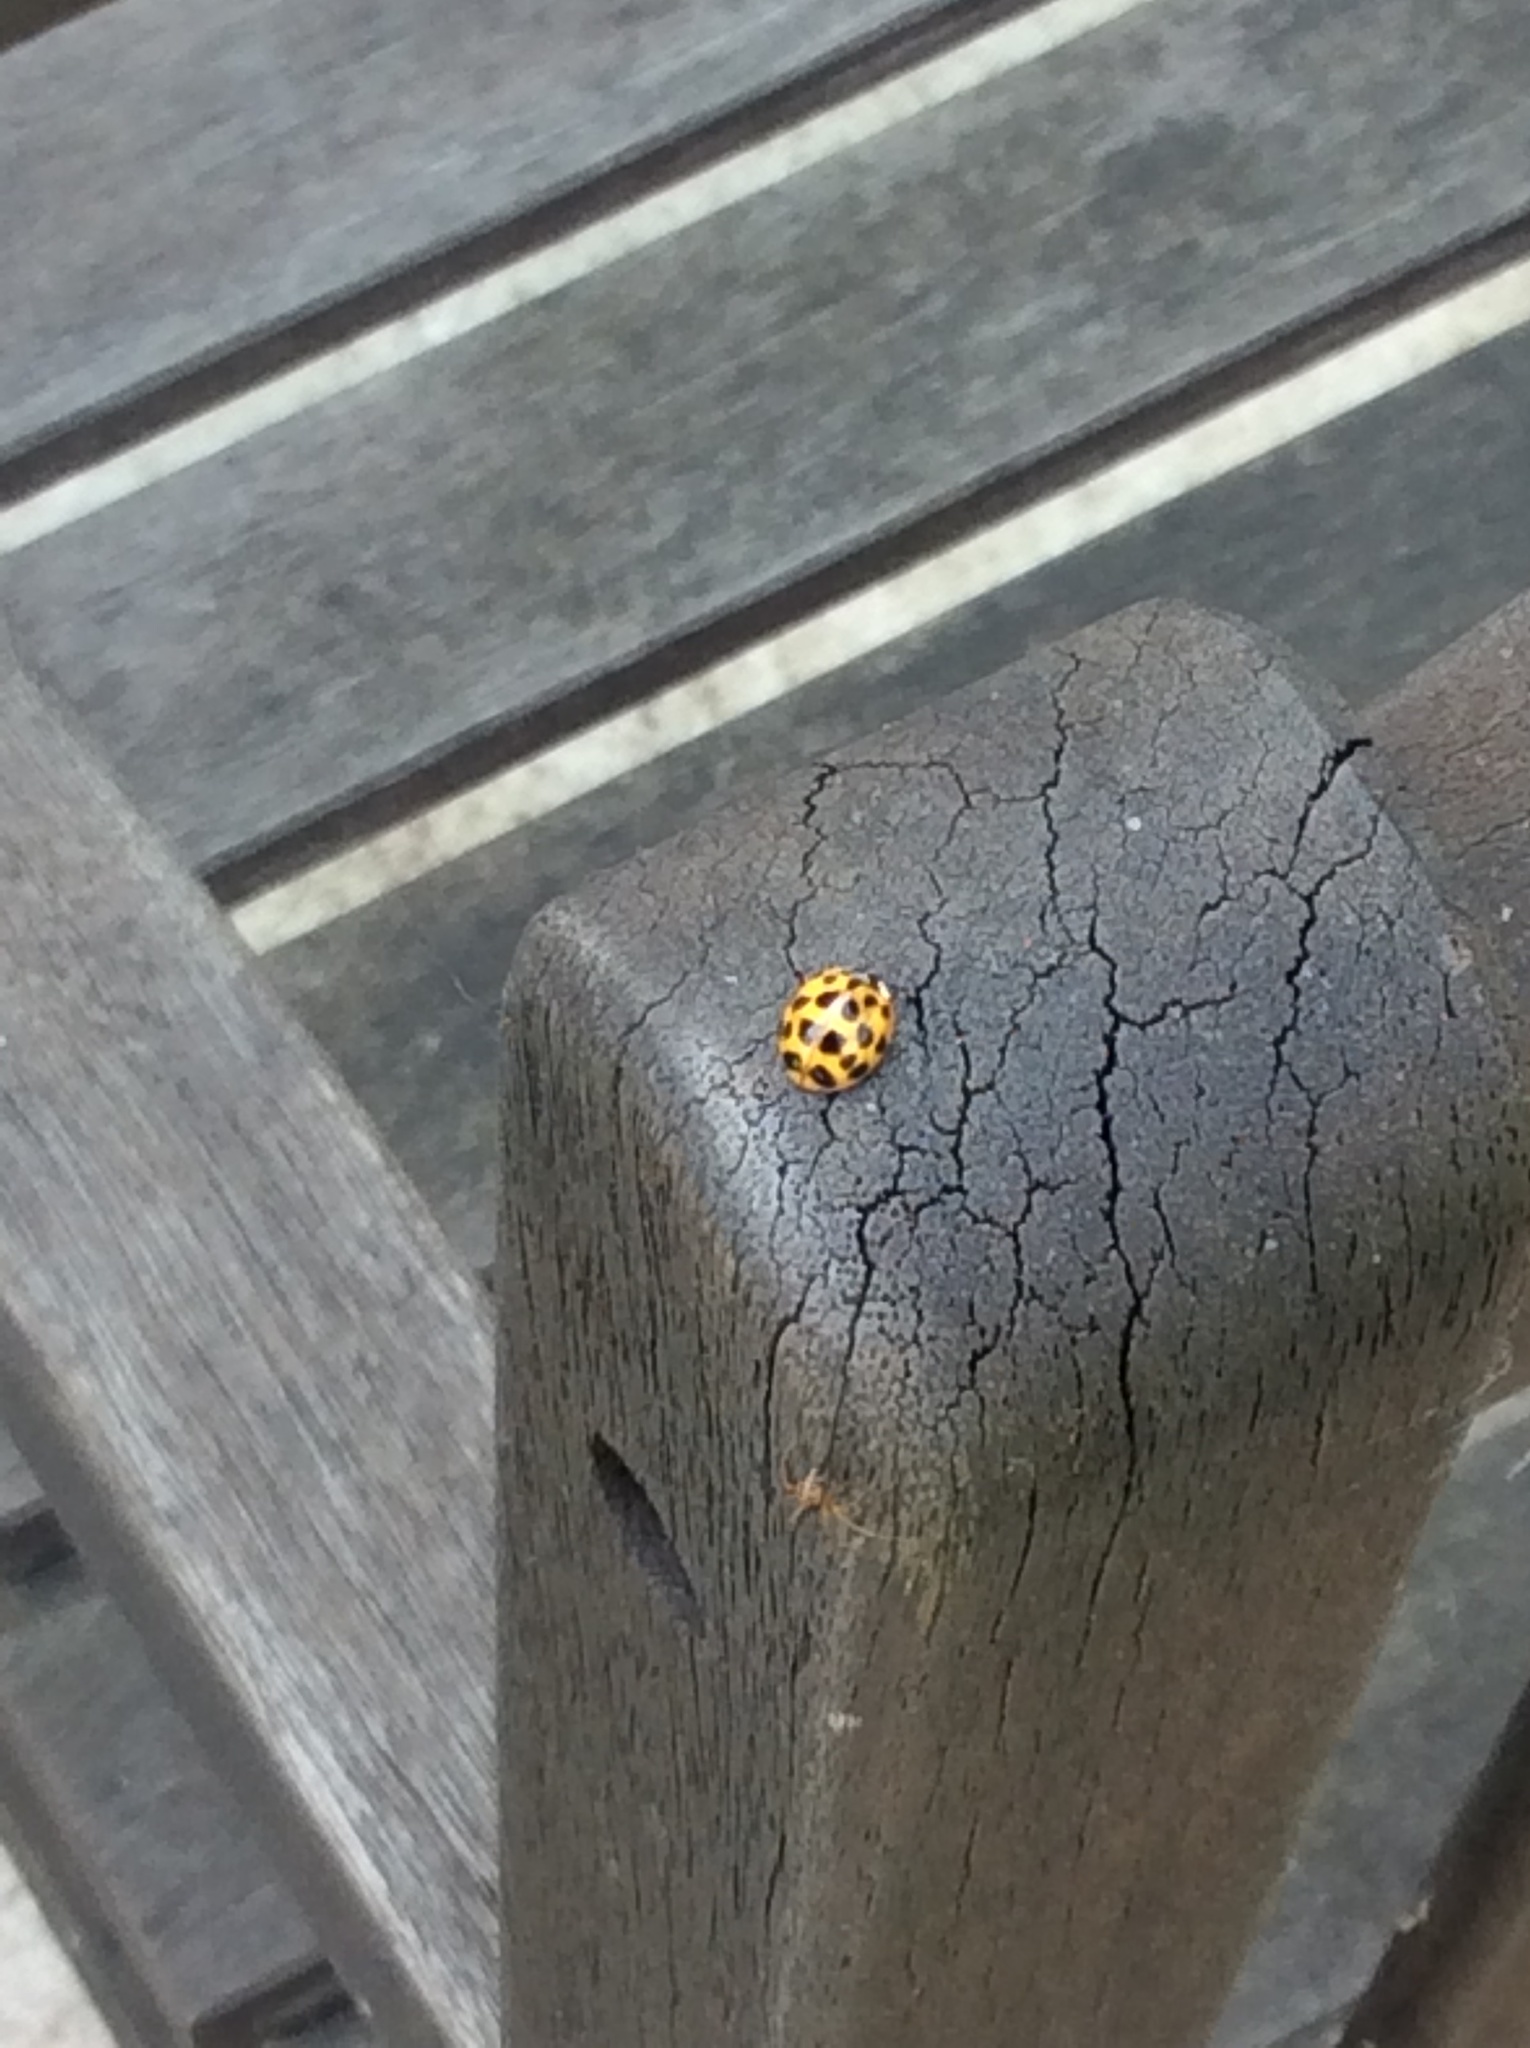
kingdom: Animalia
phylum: Arthropoda
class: Insecta
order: Coleoptera
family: Coccinellidae
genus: Harmonia
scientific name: Harmonia axyridis
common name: Harlequin ladybird
